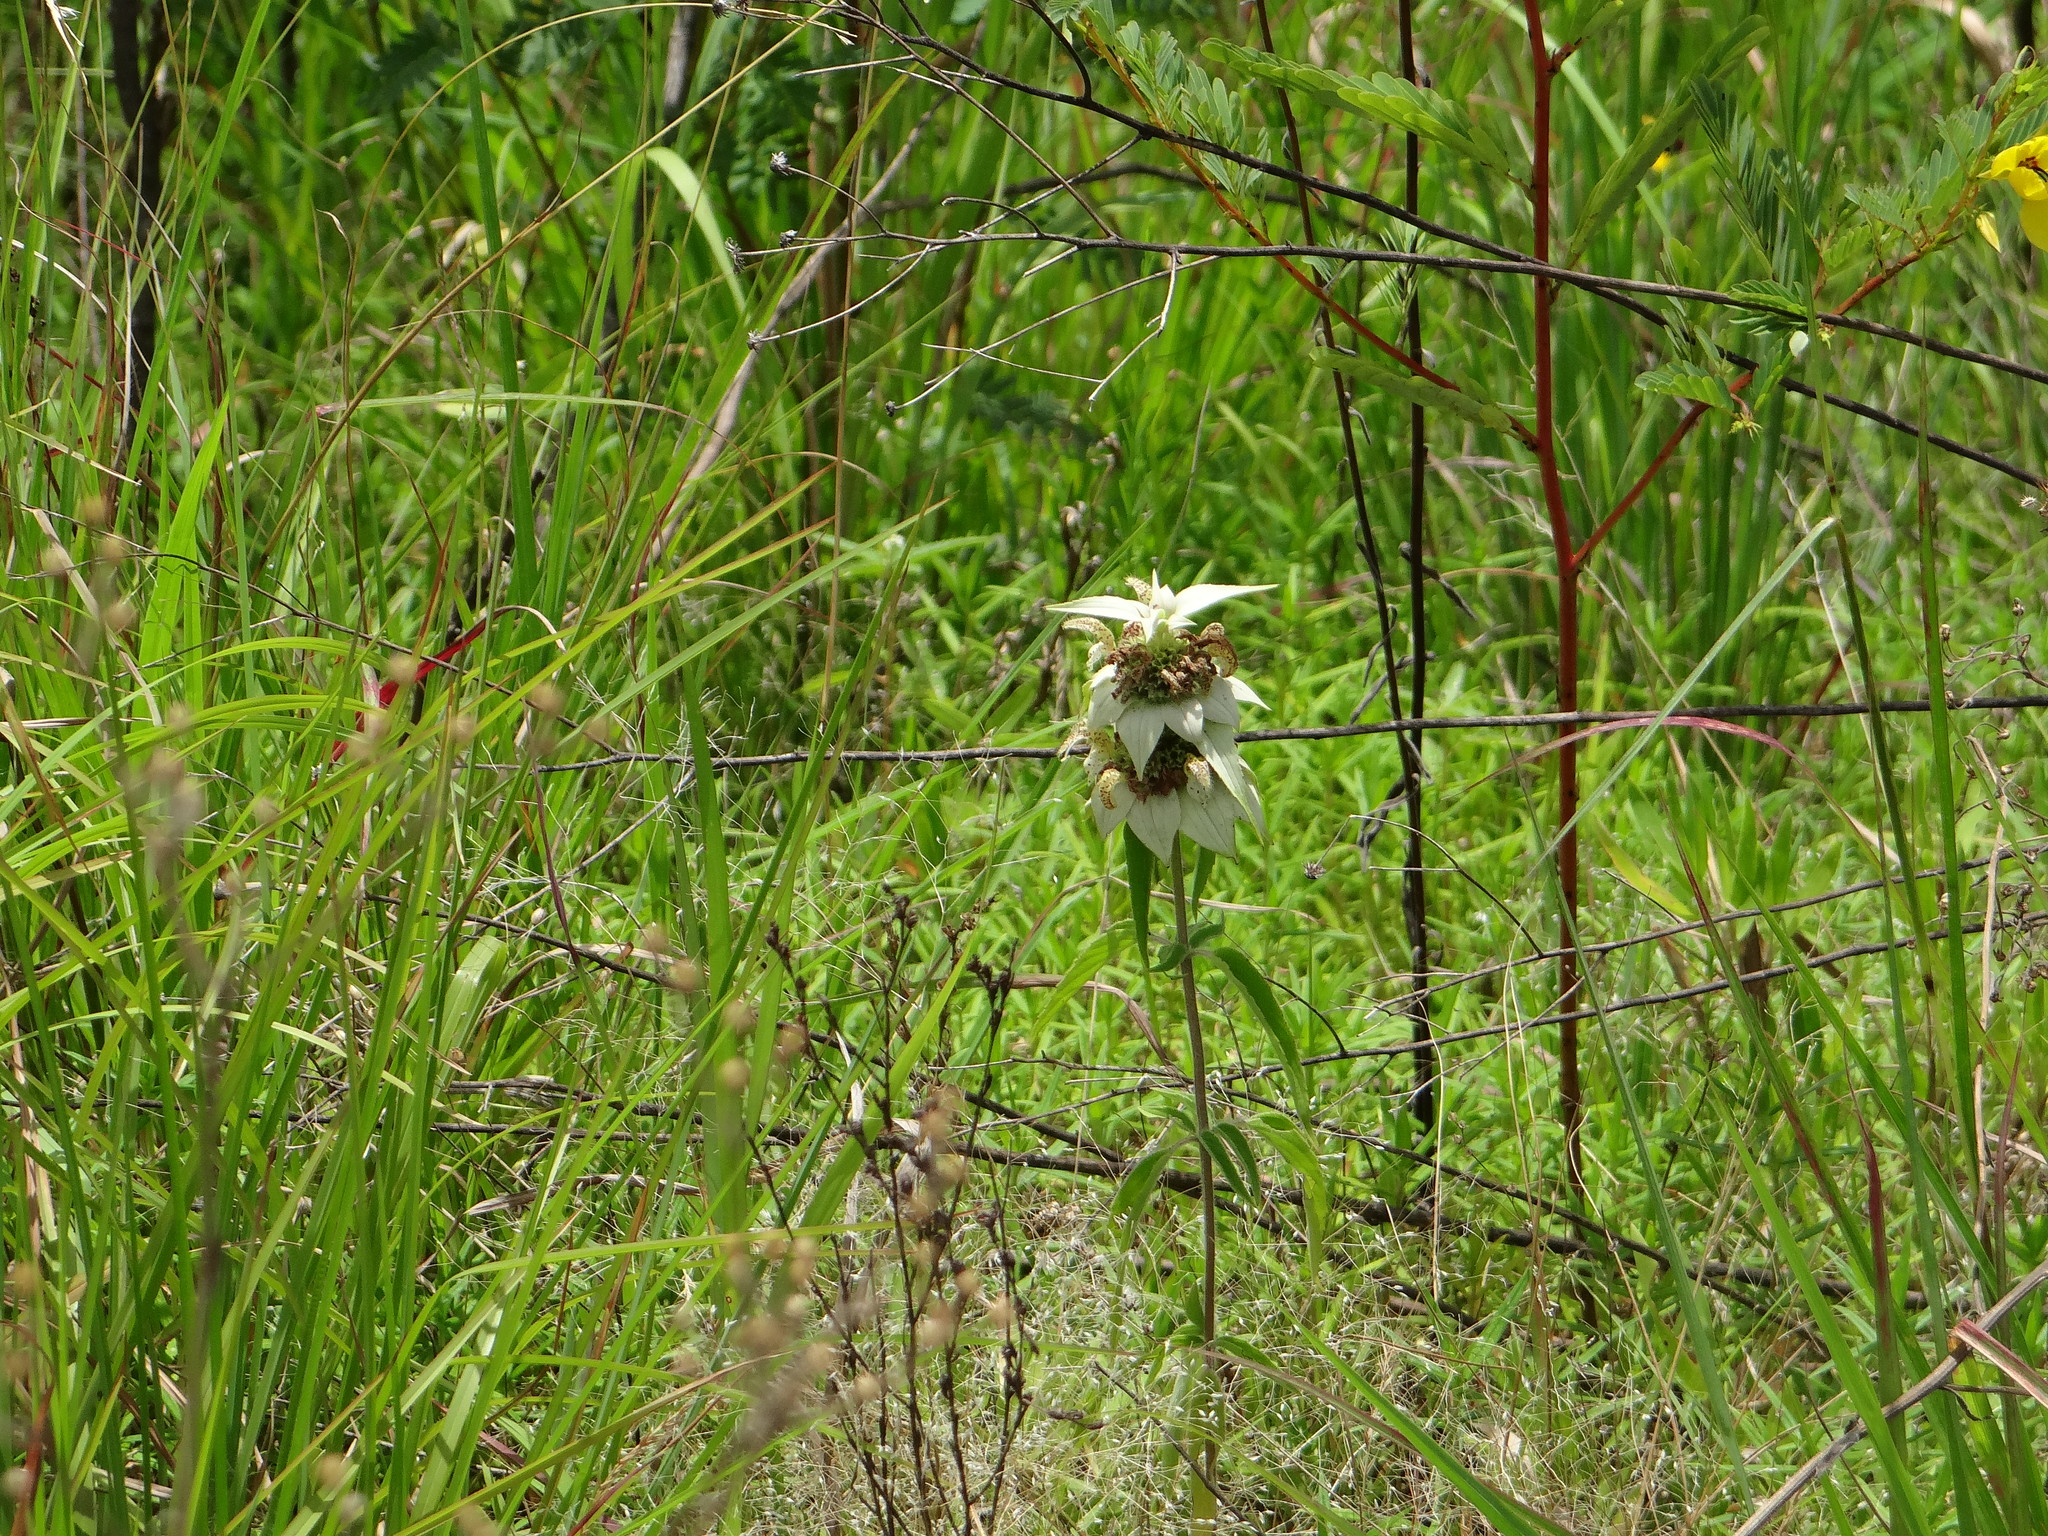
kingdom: Plantae
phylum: Tracheophyta
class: Magnoliopsida
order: Lamiales
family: Lamiaceae
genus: Monarda
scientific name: Monarda punctata
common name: Dotted monarda
